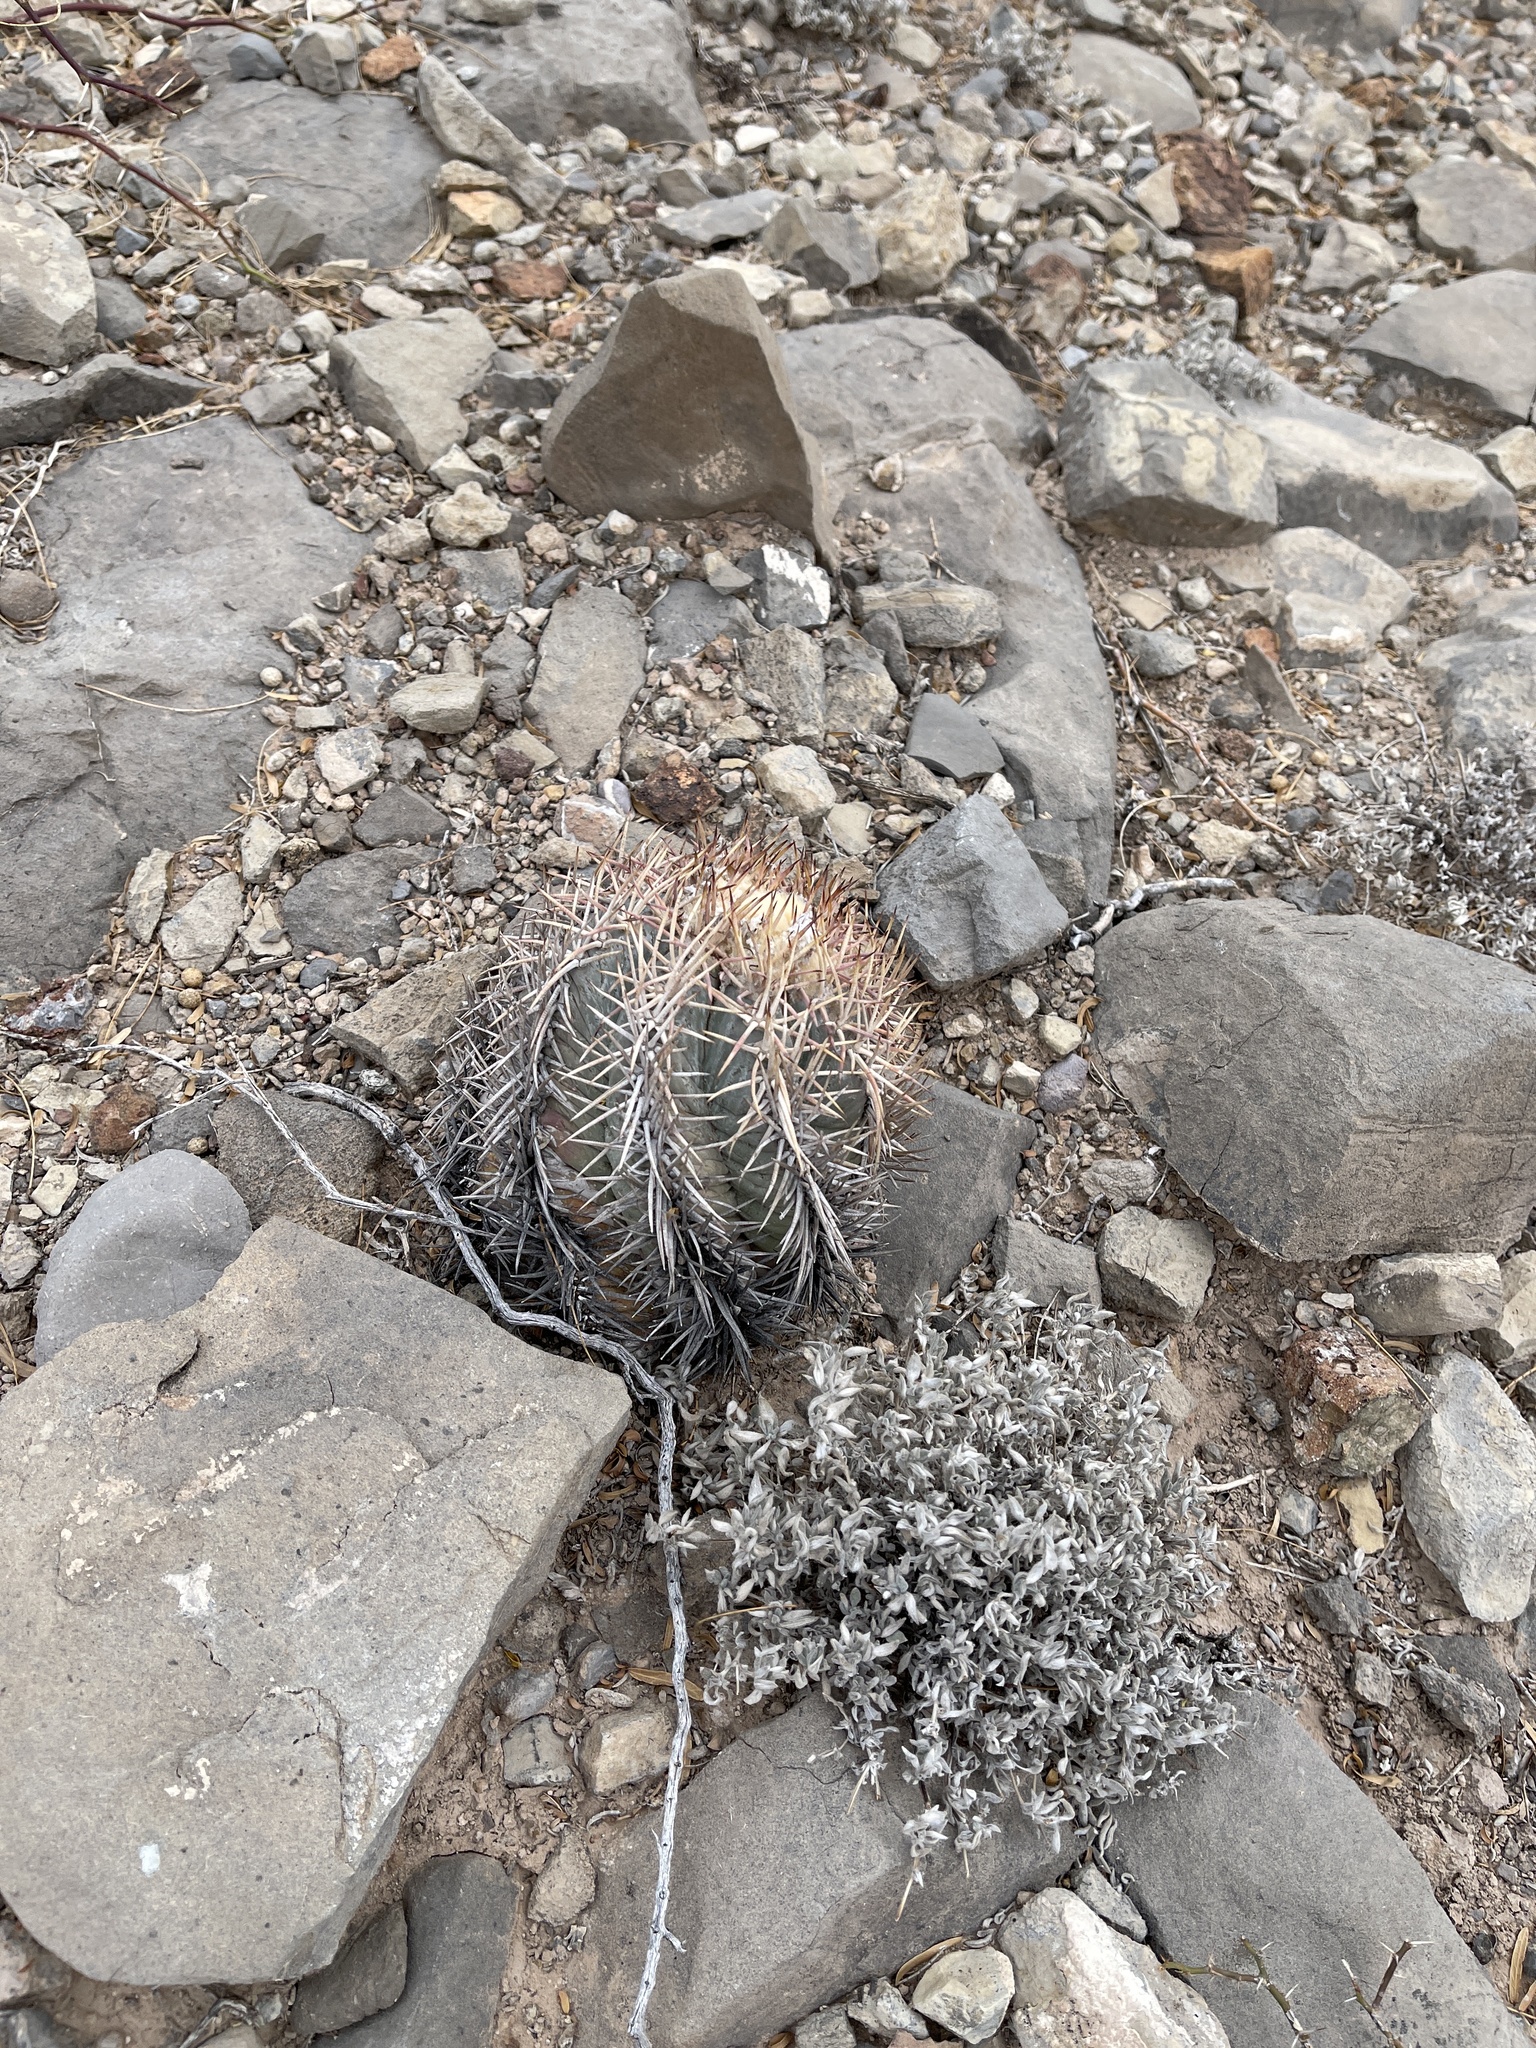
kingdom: Plantae
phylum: Tracheophyta
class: Magnoliopsida
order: Caryophyllales
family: Cactaceae
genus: Echinocactus
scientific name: Echinocactus horizonthalonius
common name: Devilshead
